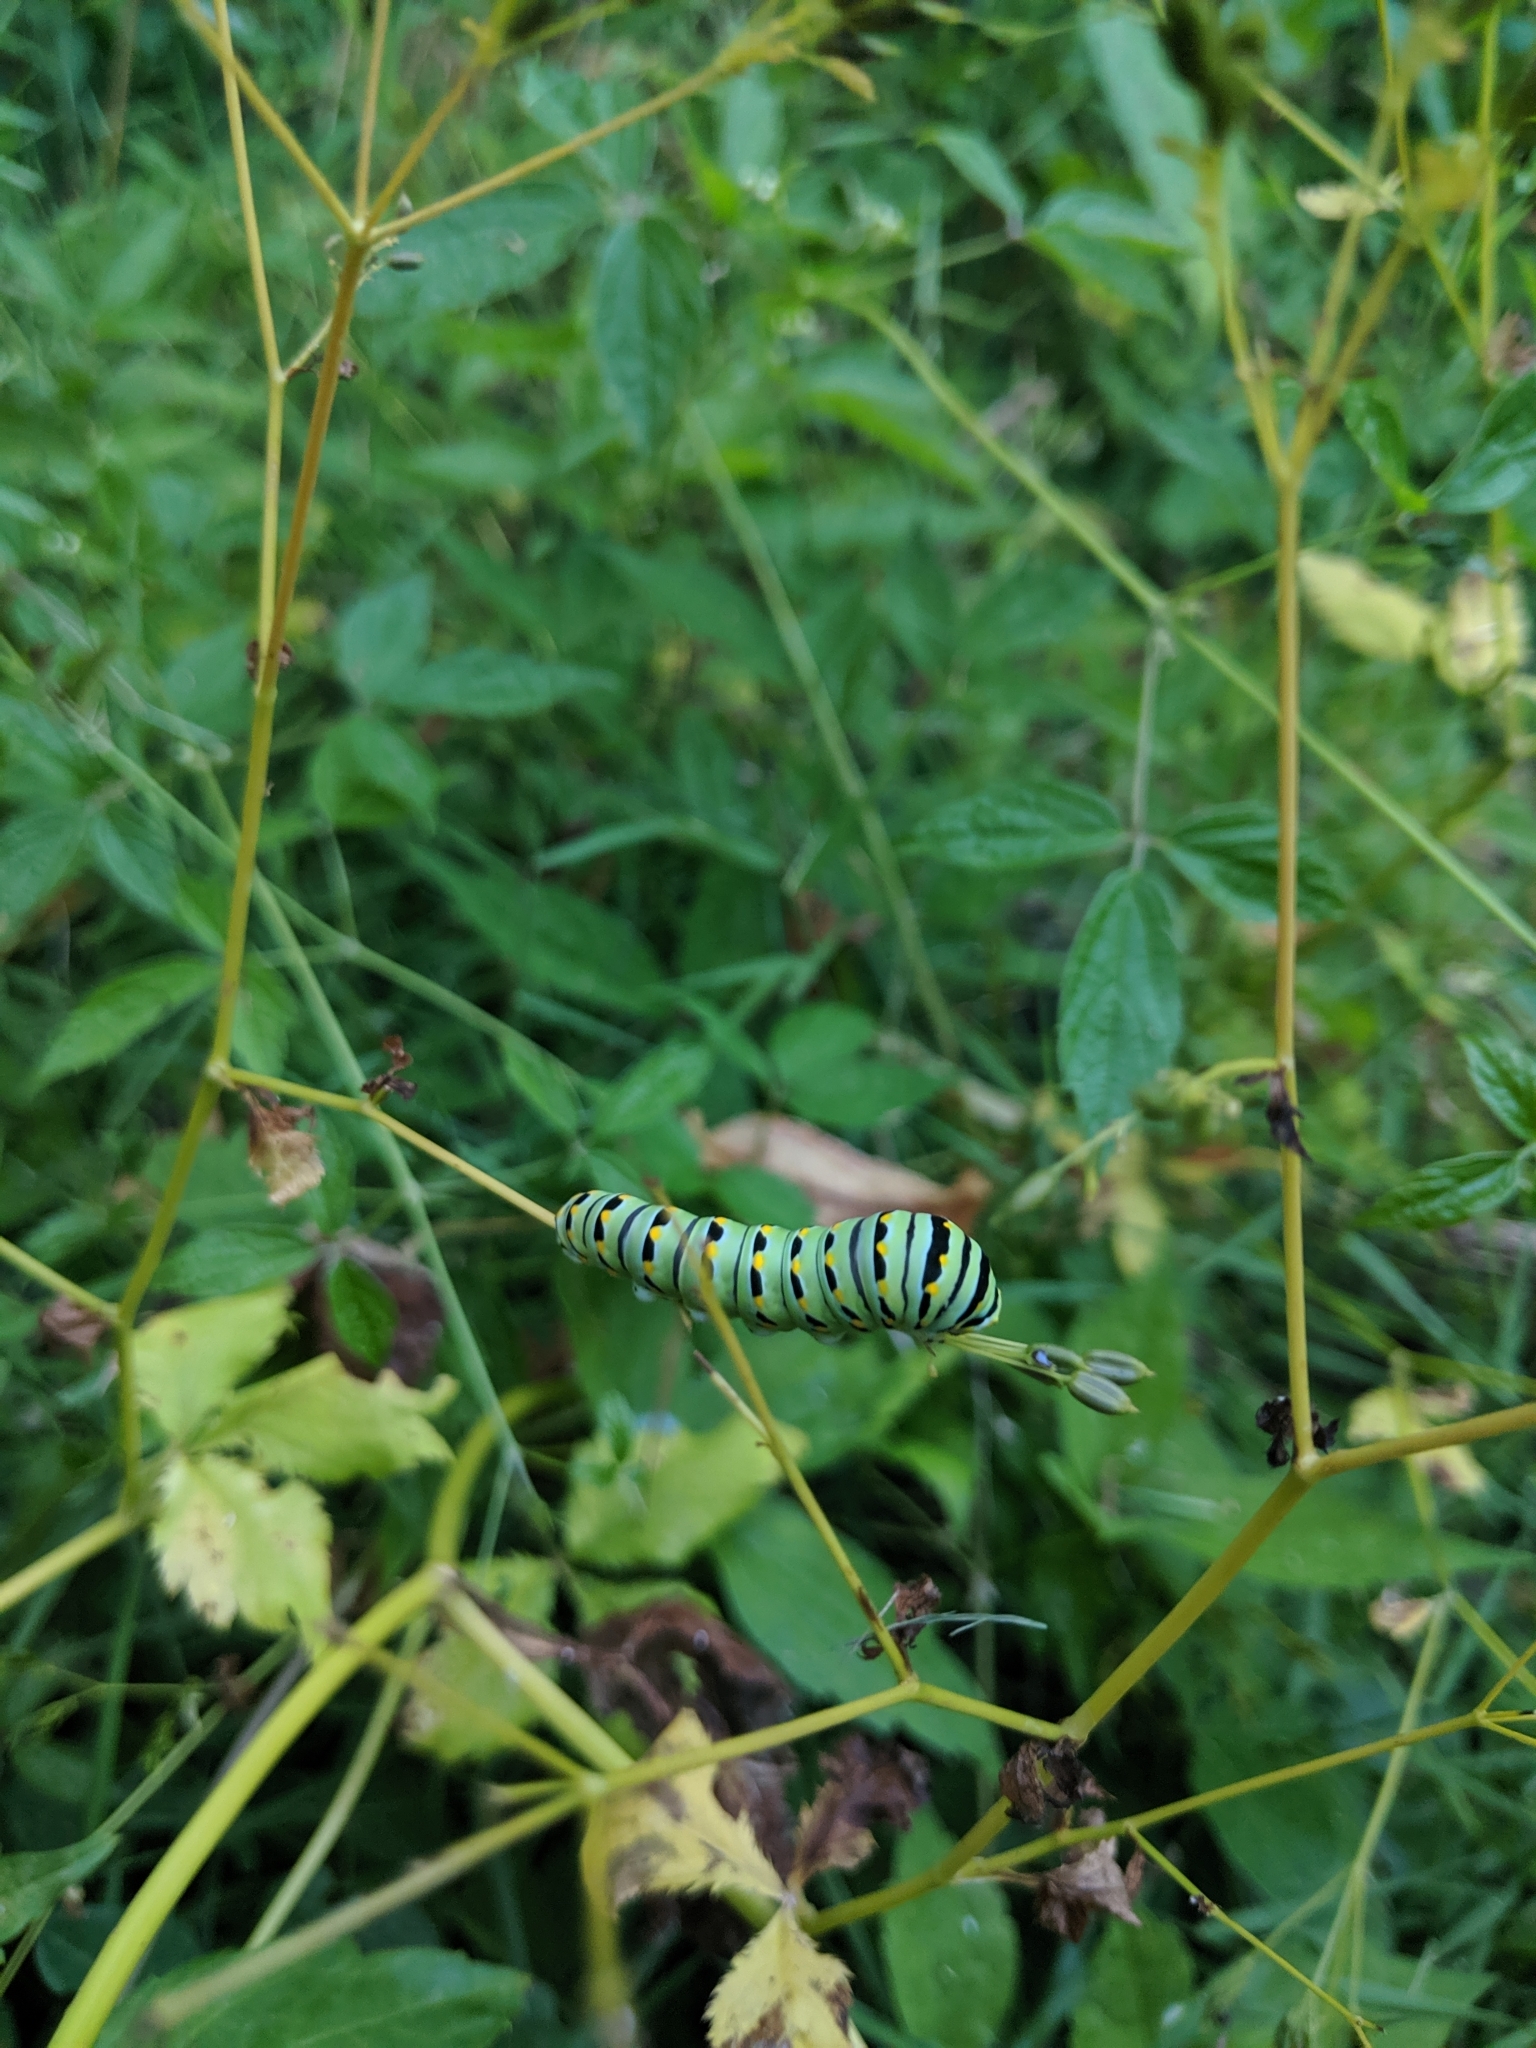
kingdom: Animalia
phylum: Arthropoda
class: Insecta
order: Lepidoptera
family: Papilionidae
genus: Papilio
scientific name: Papilio polyxenes
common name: Black swallowtail
